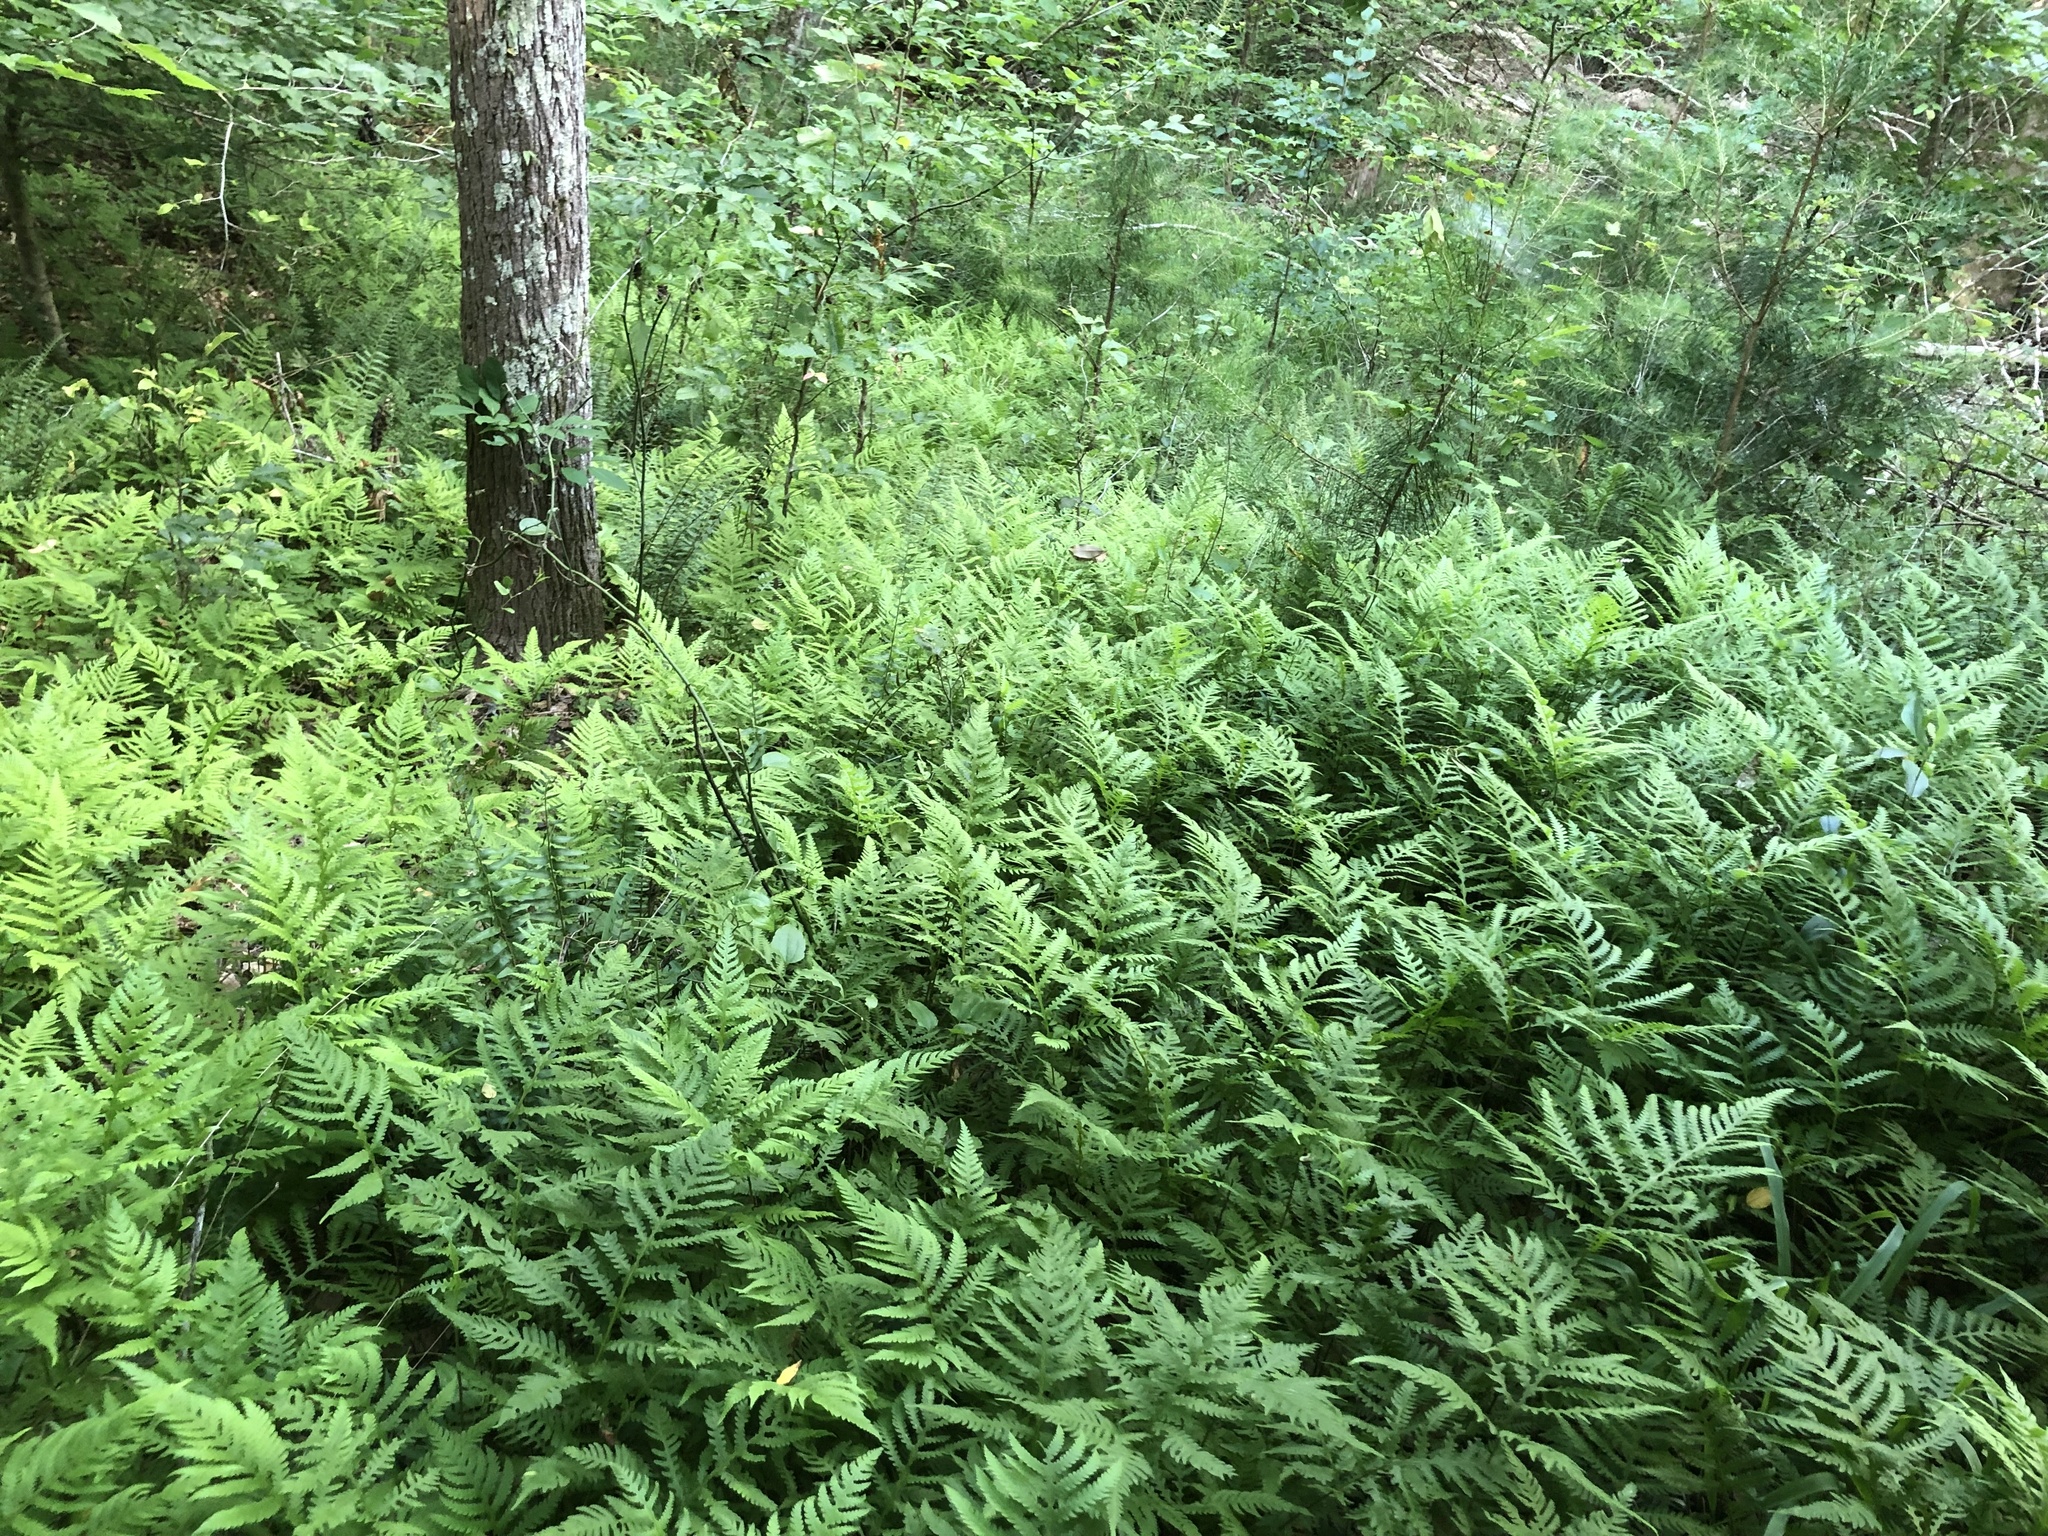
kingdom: Plantae
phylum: Tracheophyta
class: Polypodiopsida
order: Polypodiales
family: Thelypteridaceae
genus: Phegopteris
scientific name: Phegopteris hexagonoptera
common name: Broad beech fern
